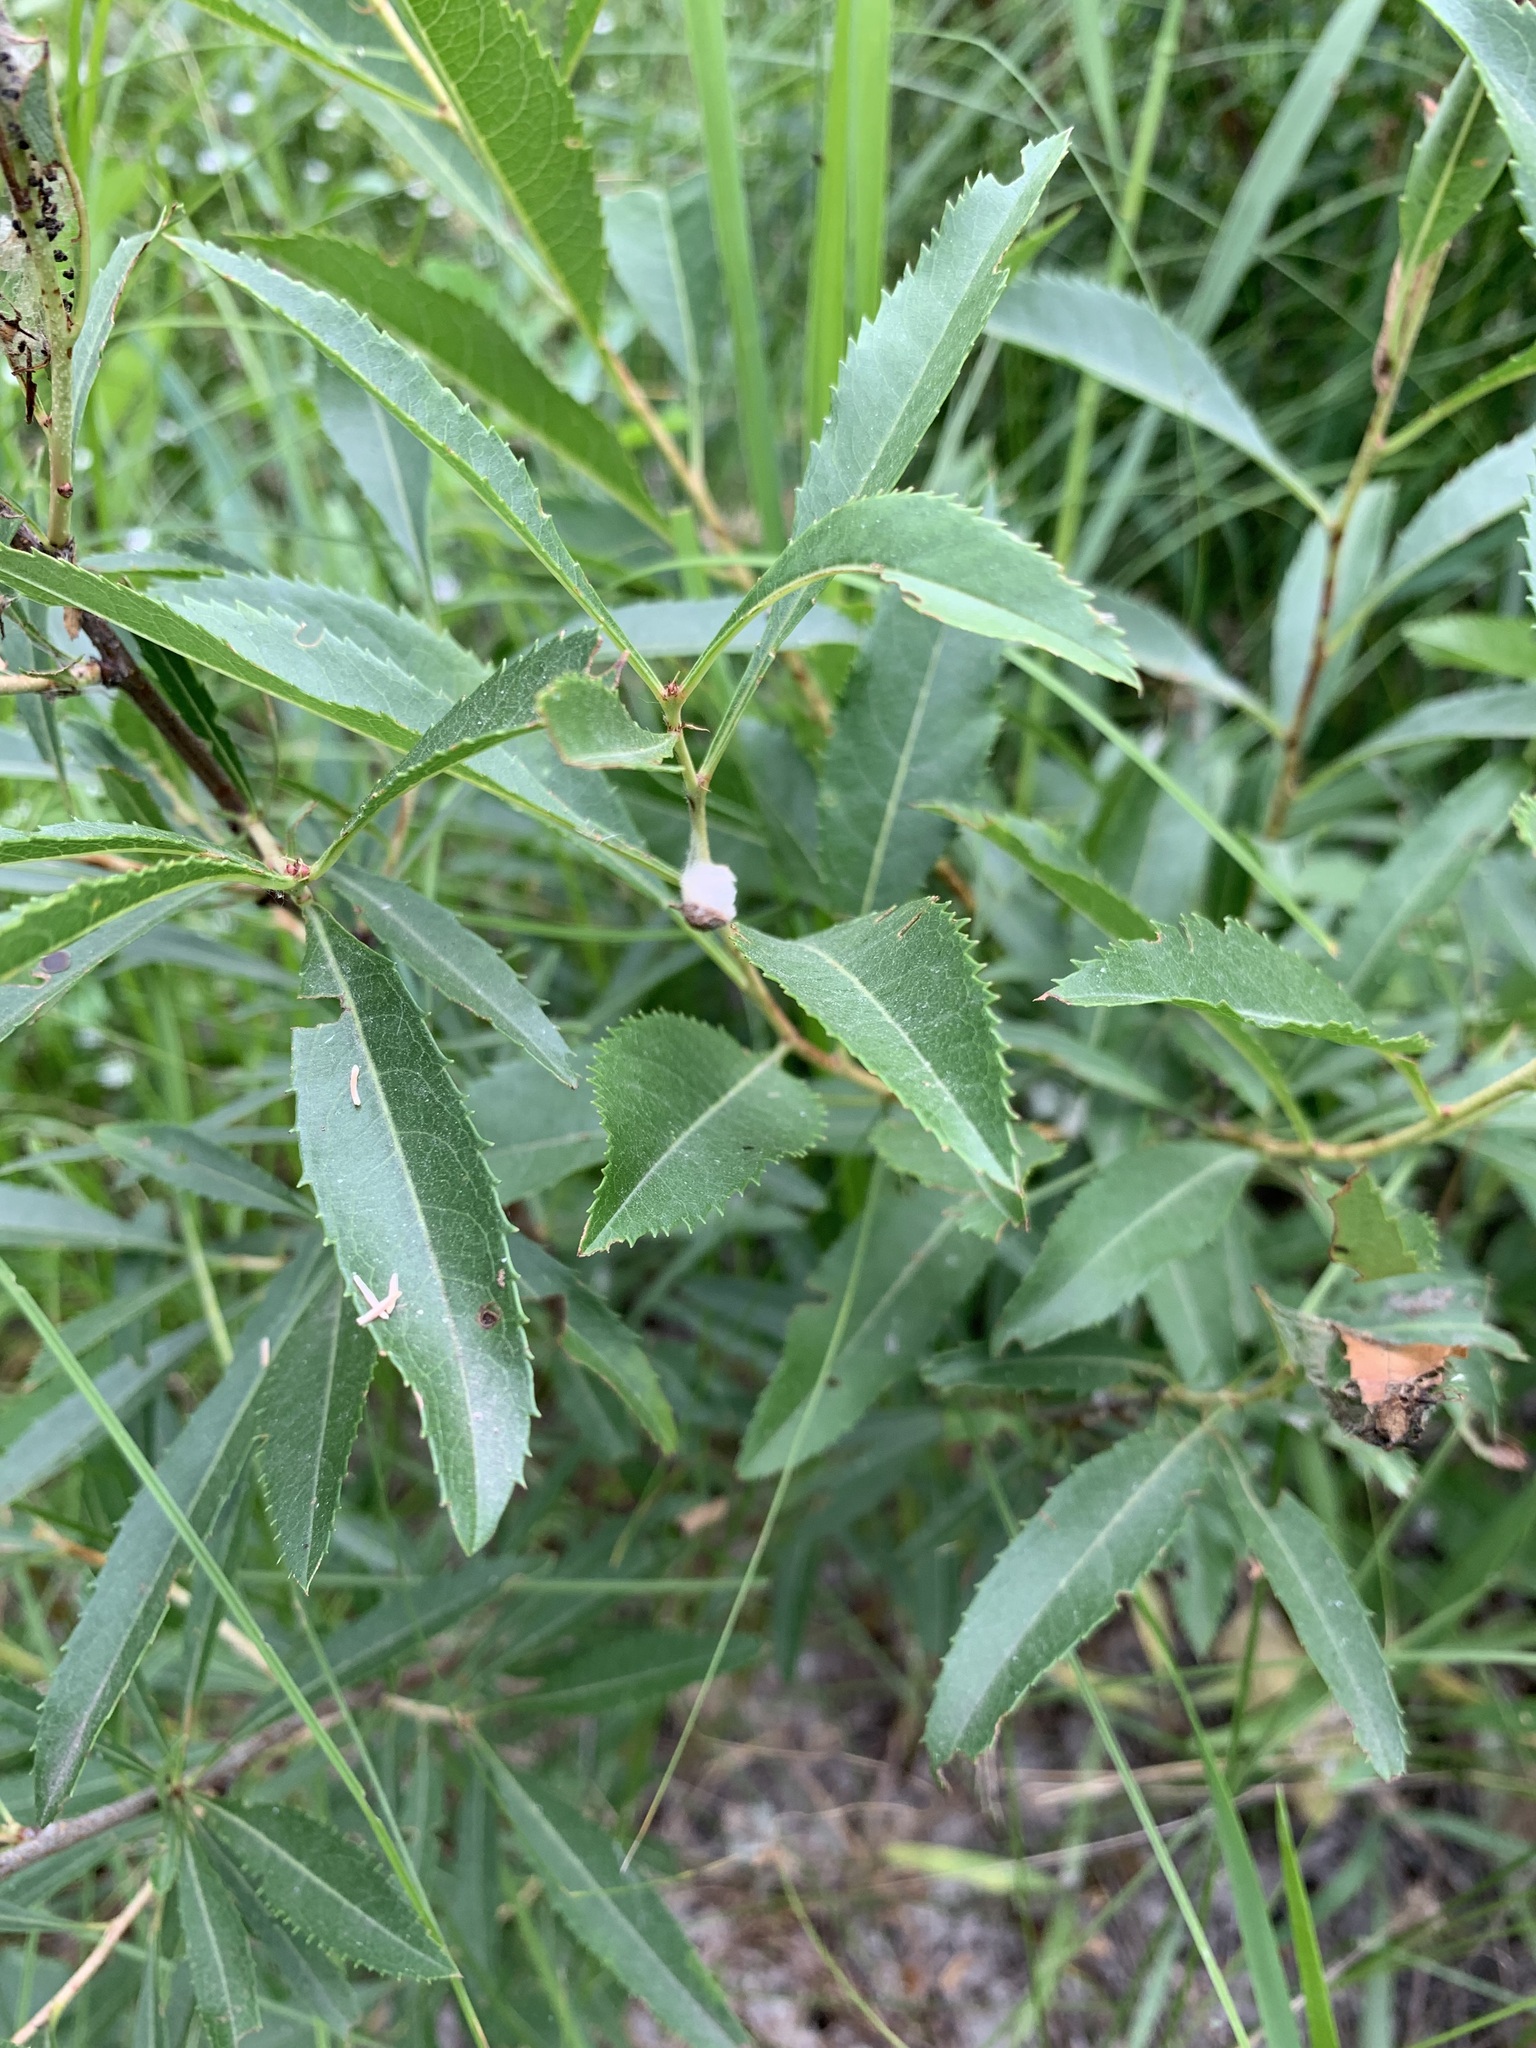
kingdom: Plantae
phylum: Tracheophyta
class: Magnoliopsida
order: Rosales
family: Rosaceae
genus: Prunus
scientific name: Prunus tenella
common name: Dwarf russian almond
